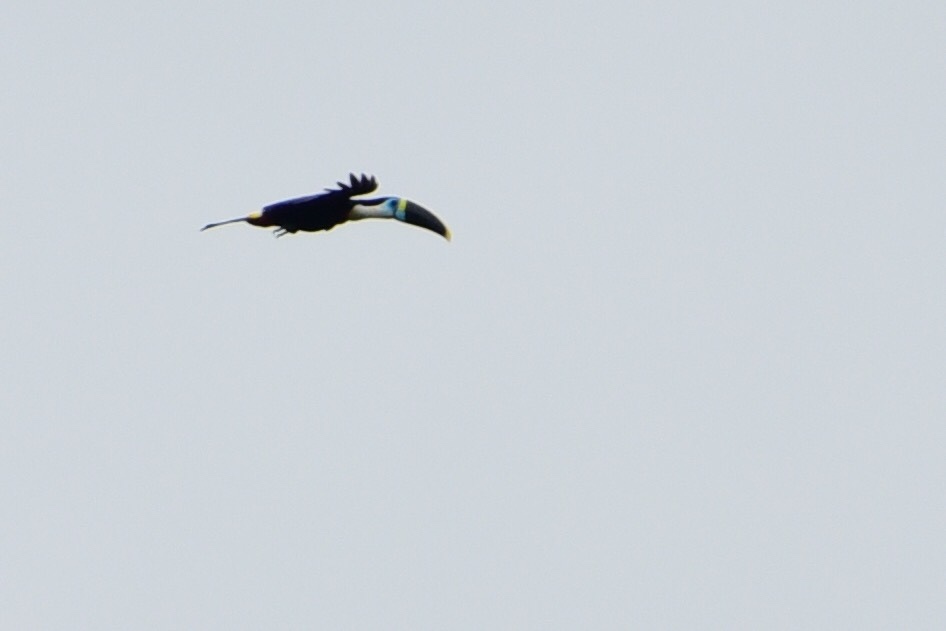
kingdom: Animalia
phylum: Chordata
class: Aves
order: Piciformes
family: Ramphastidae
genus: Ramphastos
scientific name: Ramphastos tucanus
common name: White-throated toucan
